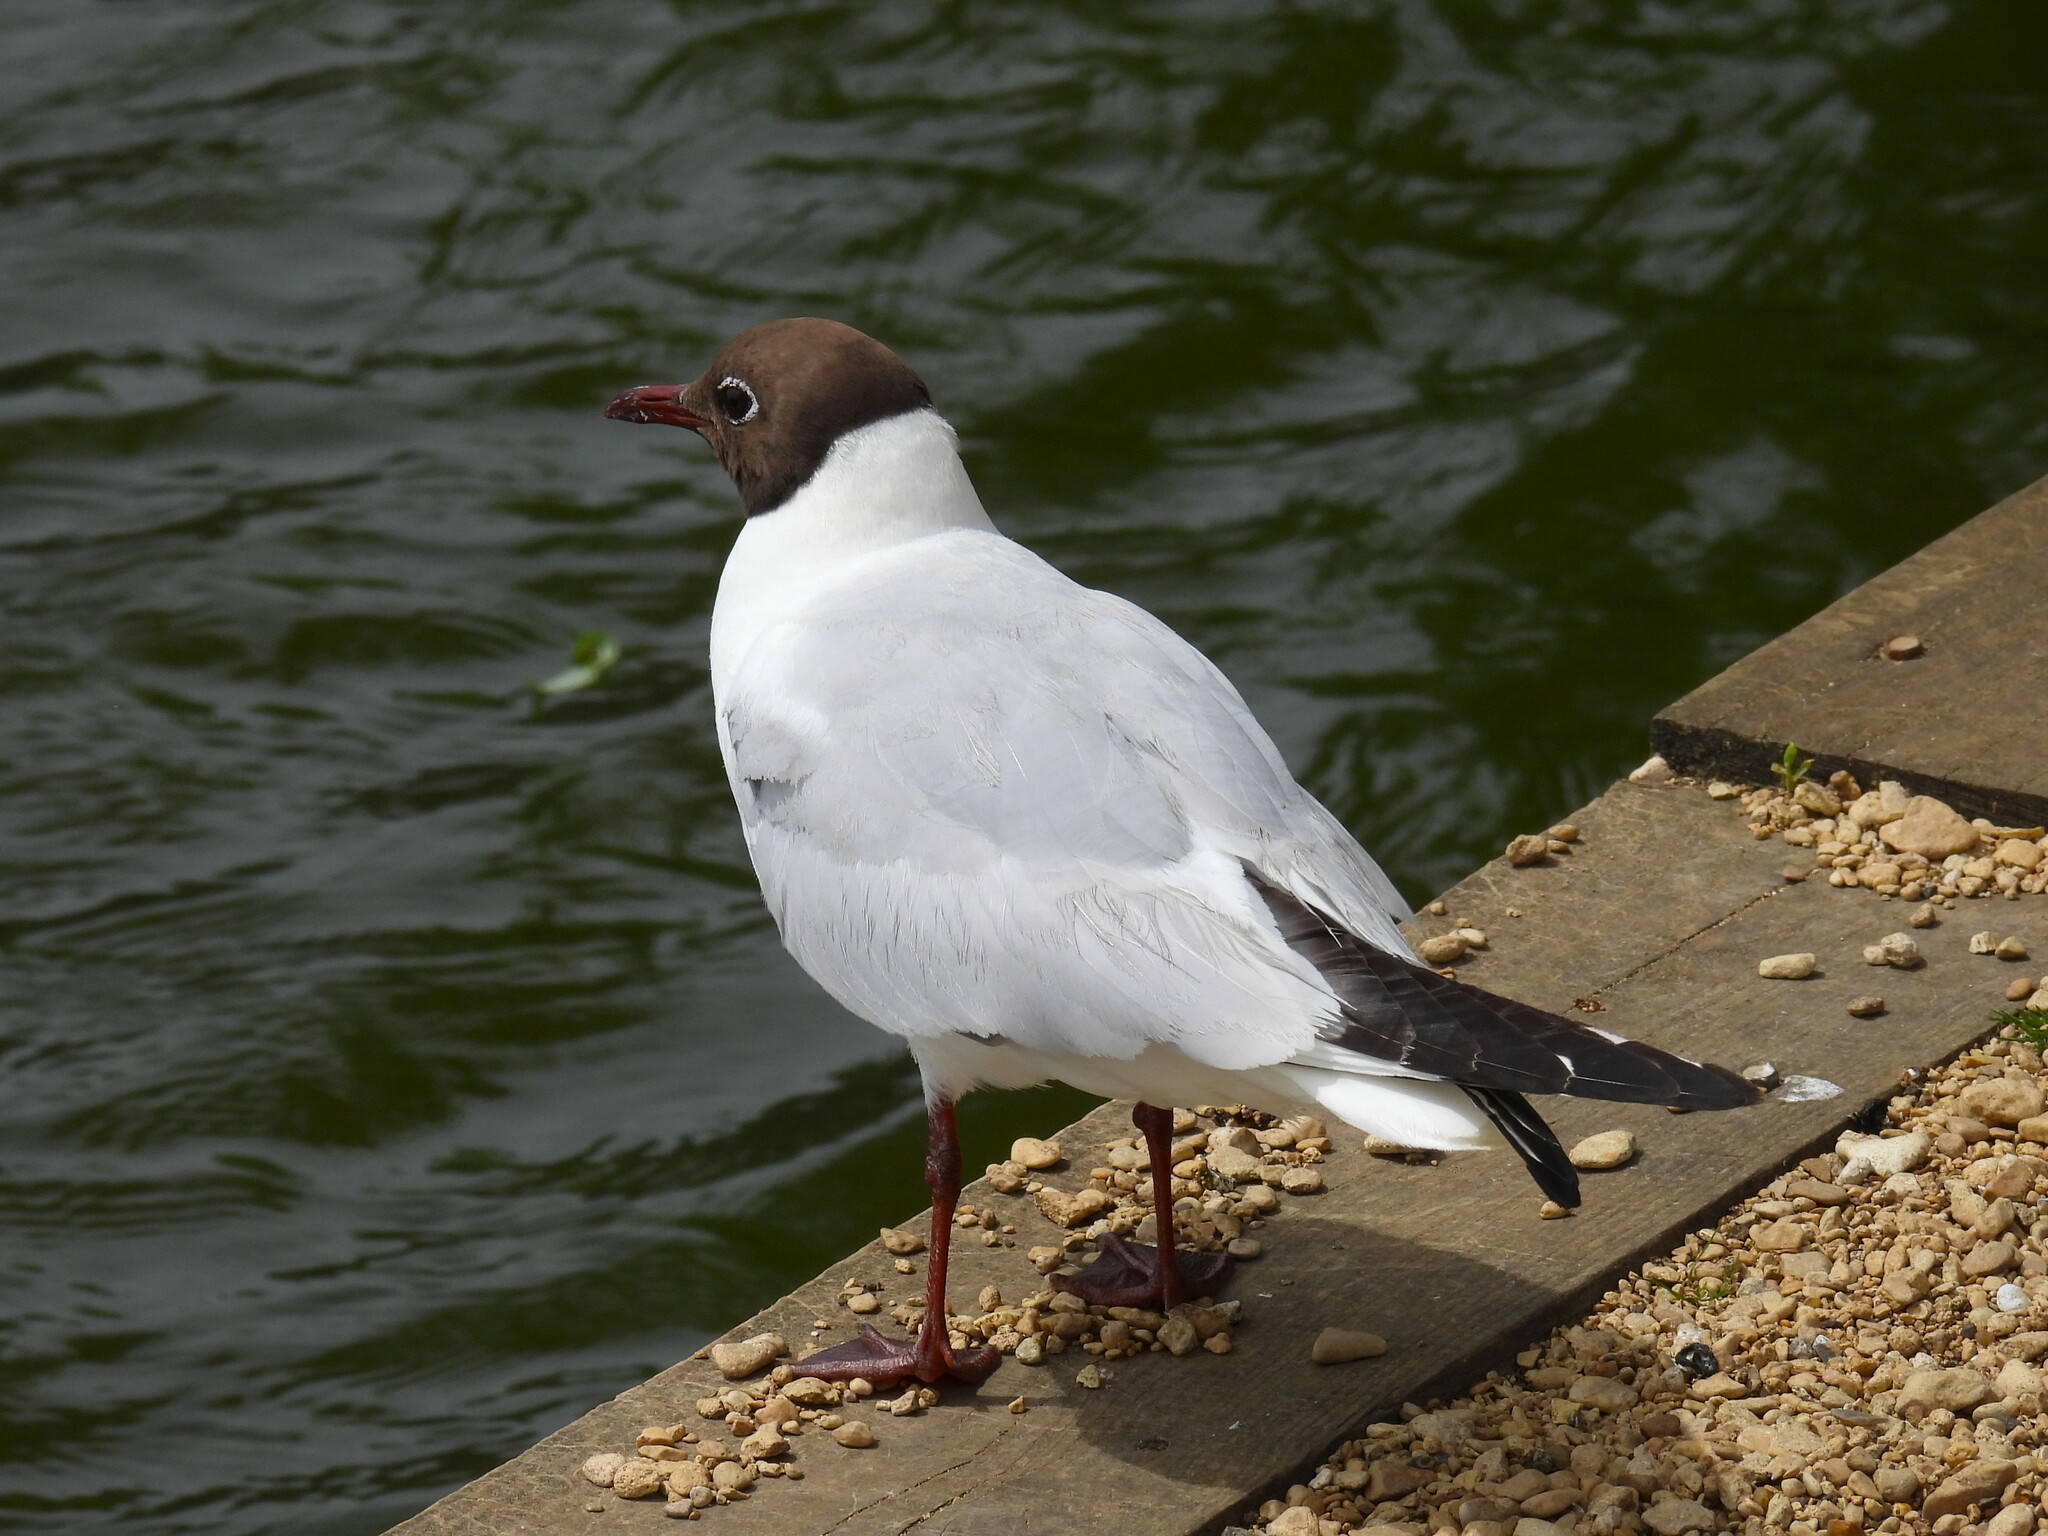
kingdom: Animalia
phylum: Chordata
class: Aves
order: Charadriiformes
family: Laridae
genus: Chroicocephalus
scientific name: Chroicocephalus ridibundus
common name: Black-headed gull
